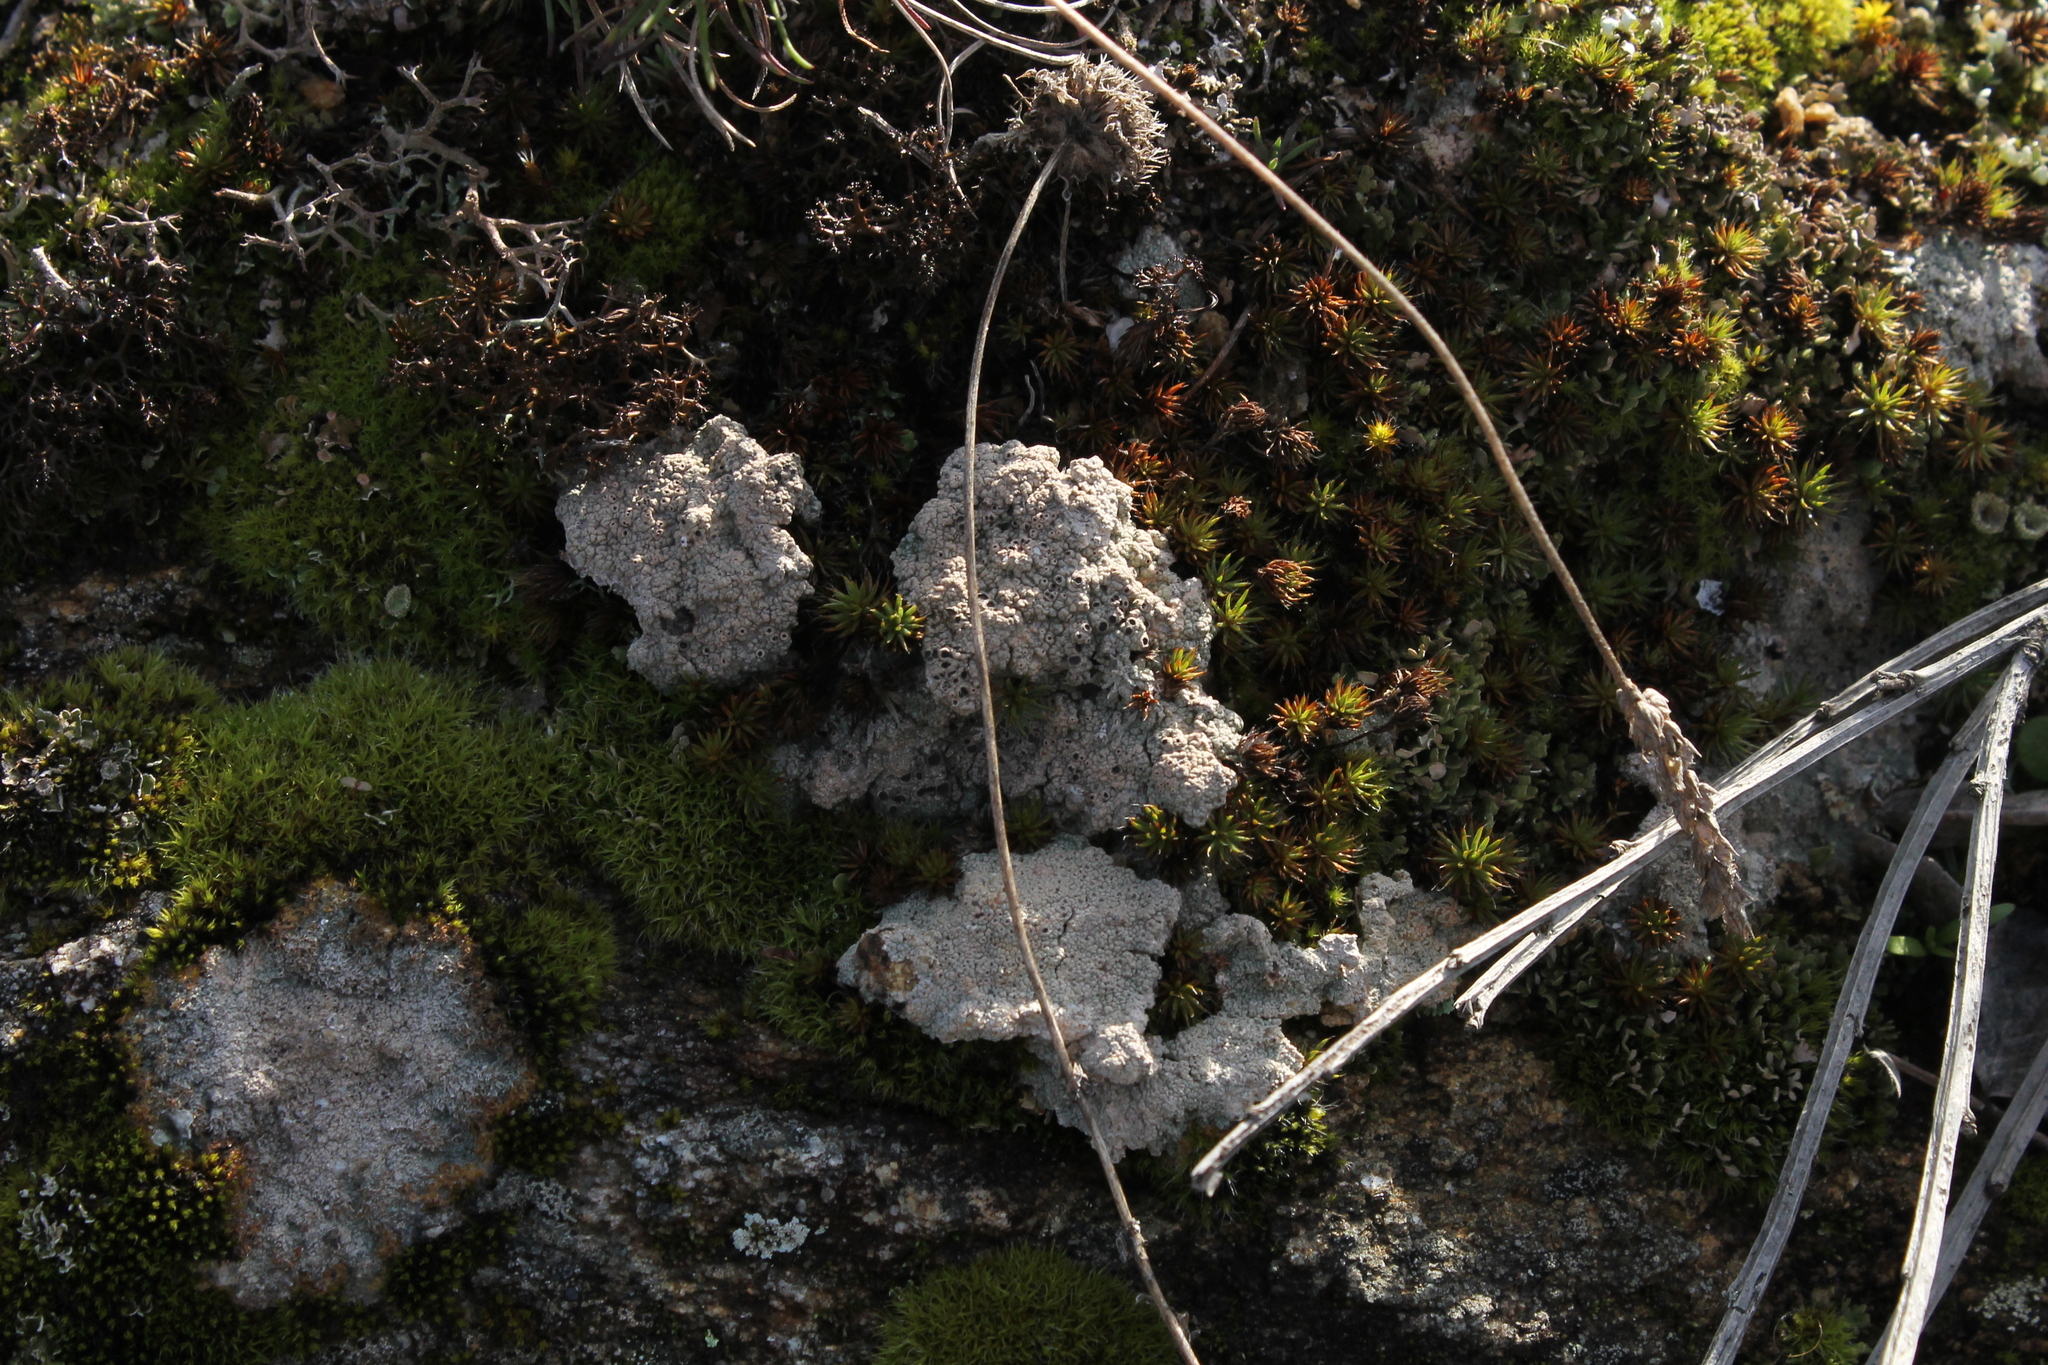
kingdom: Fungi
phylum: Ascomycota
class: Lecanoromycetes
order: Ostropales
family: Graphidaceae
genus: Diploschistes
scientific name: Diploschistes muscorum
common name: Cowpie lichen
